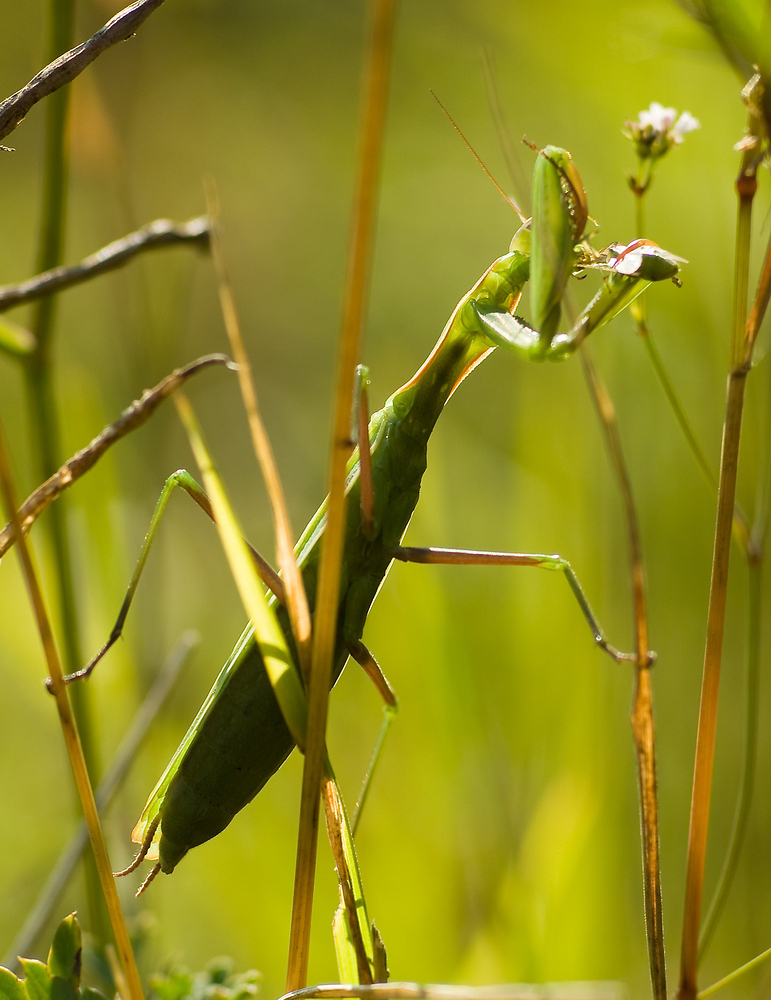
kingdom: Animalia
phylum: Arthropoda
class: Insecta
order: Mantodea
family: Mantidae
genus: Mantis
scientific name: Mantis religiosa
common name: Praying mantis
